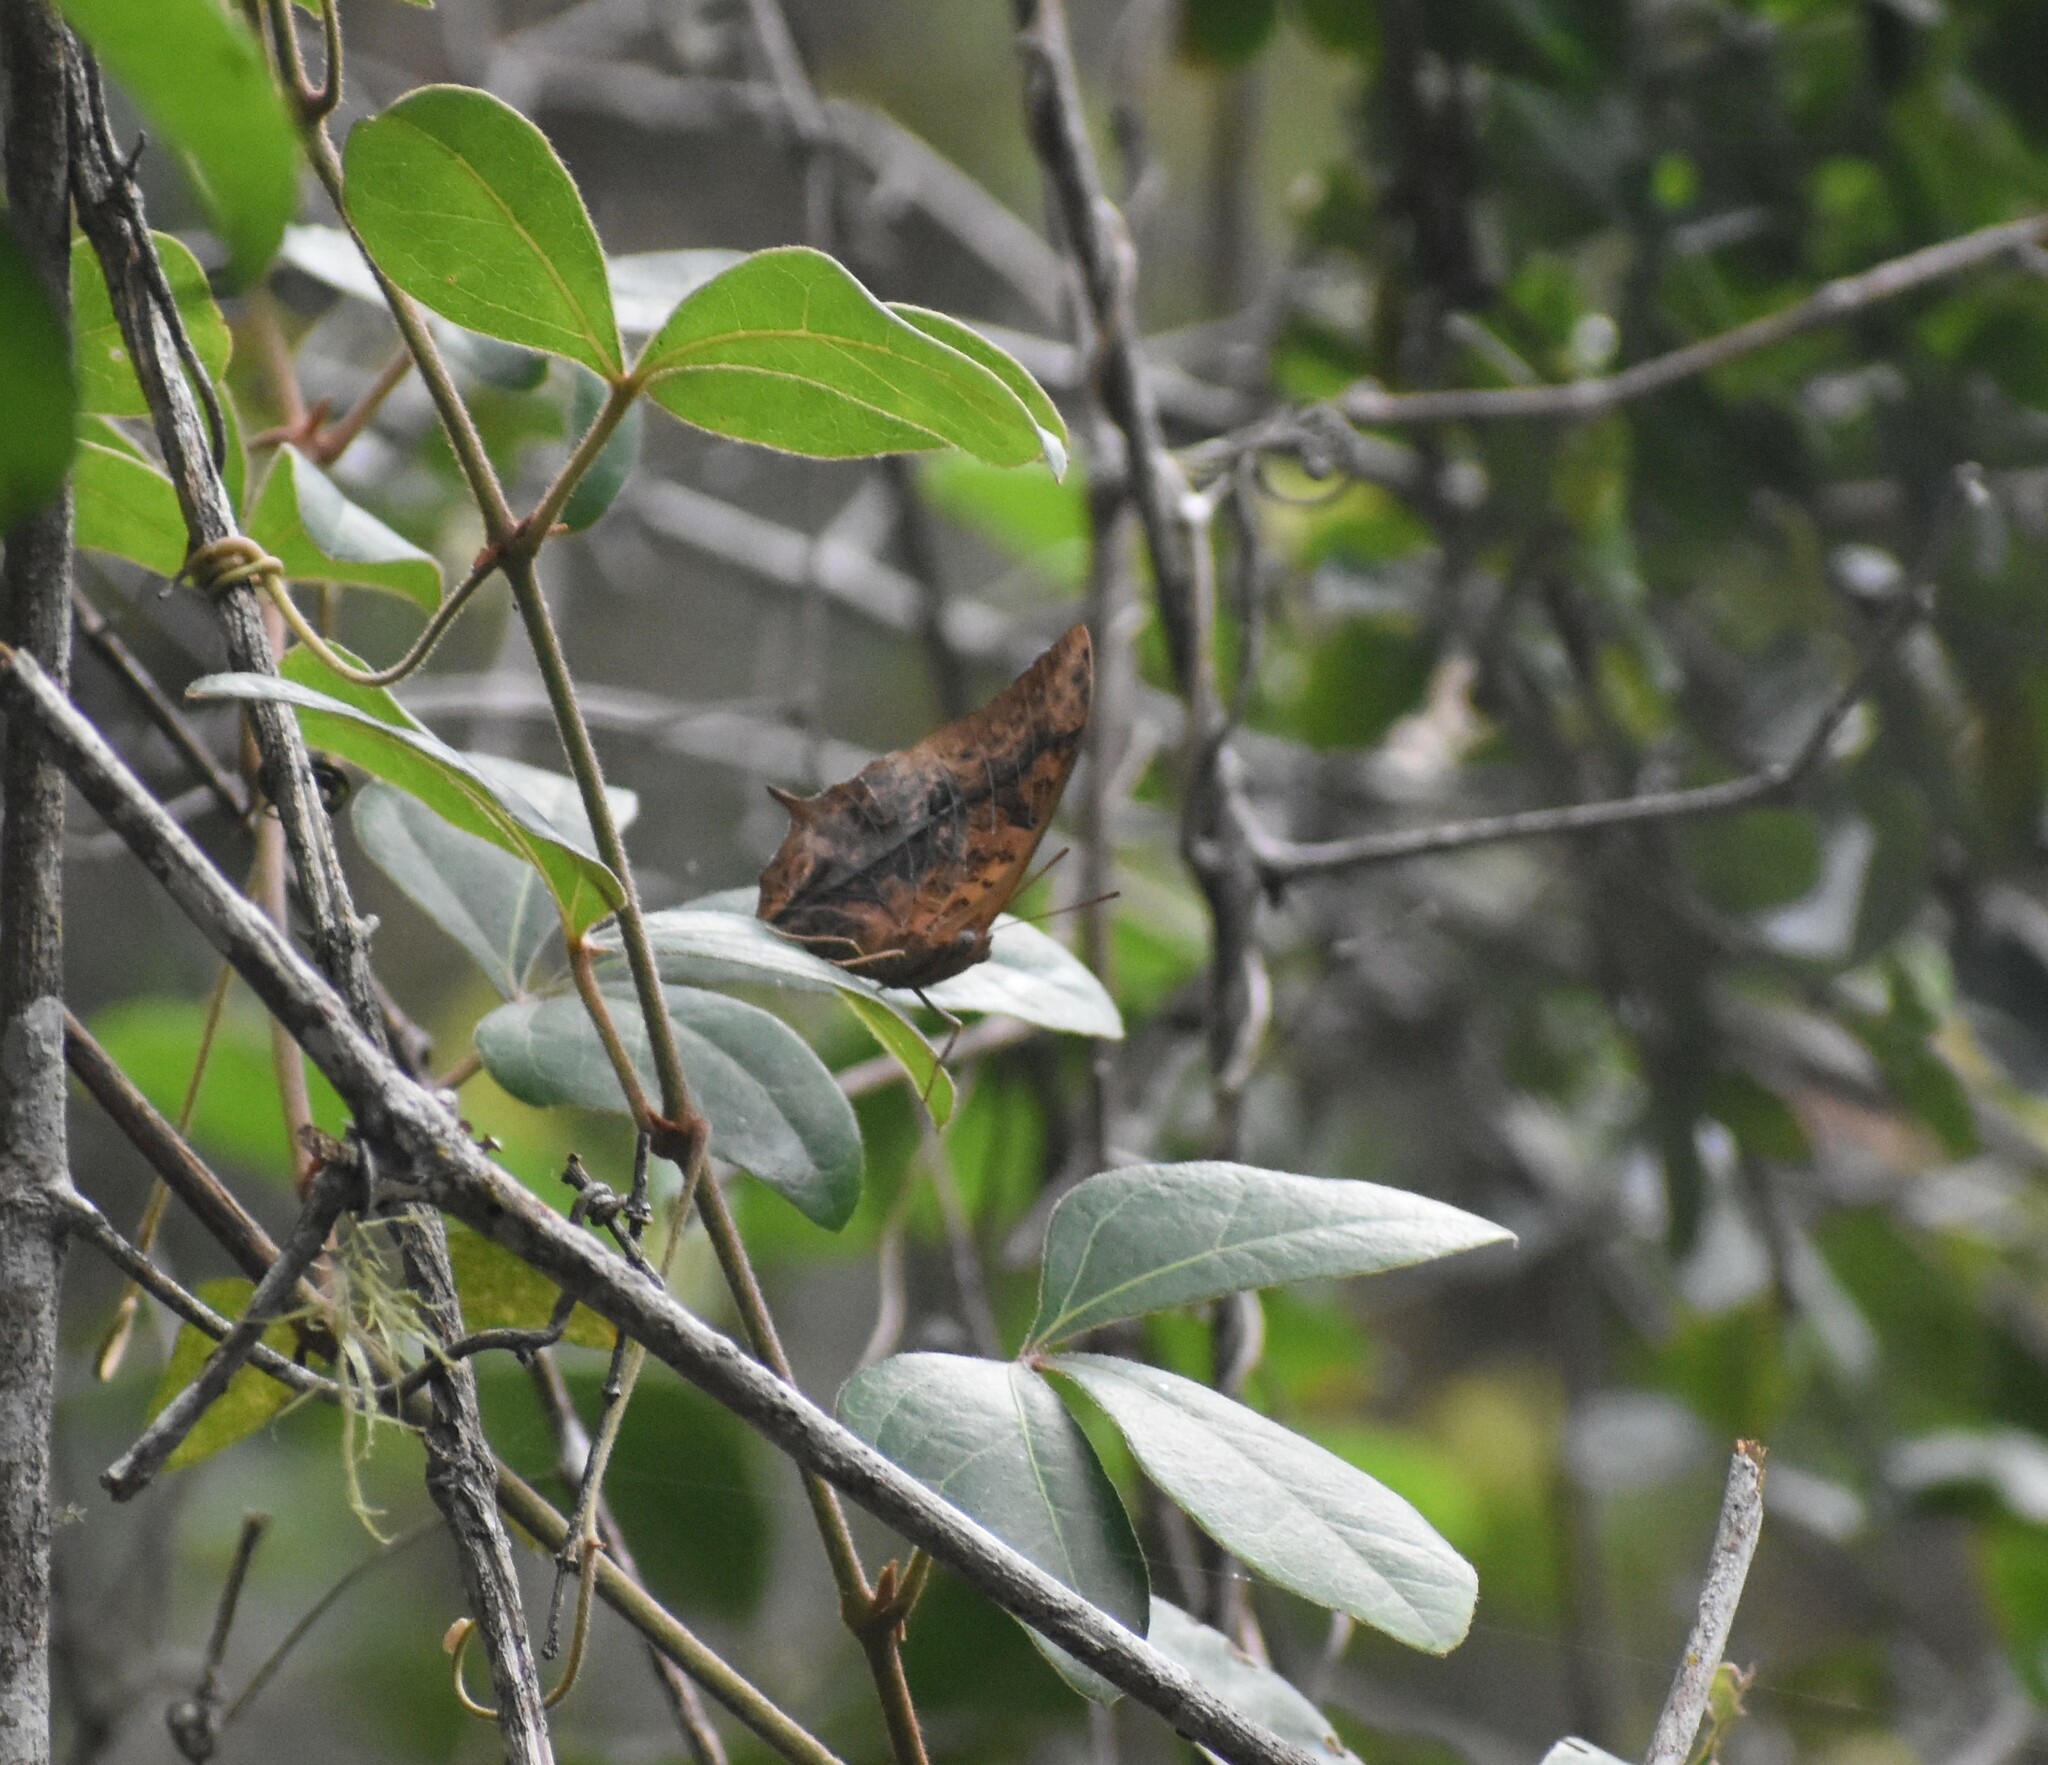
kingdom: Animalia
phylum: Arthropoda
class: Insecta
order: Lepidoptera
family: Nymphalidae
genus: Charaxes
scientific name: Charaxes varanes
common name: Common pearl charaxes
